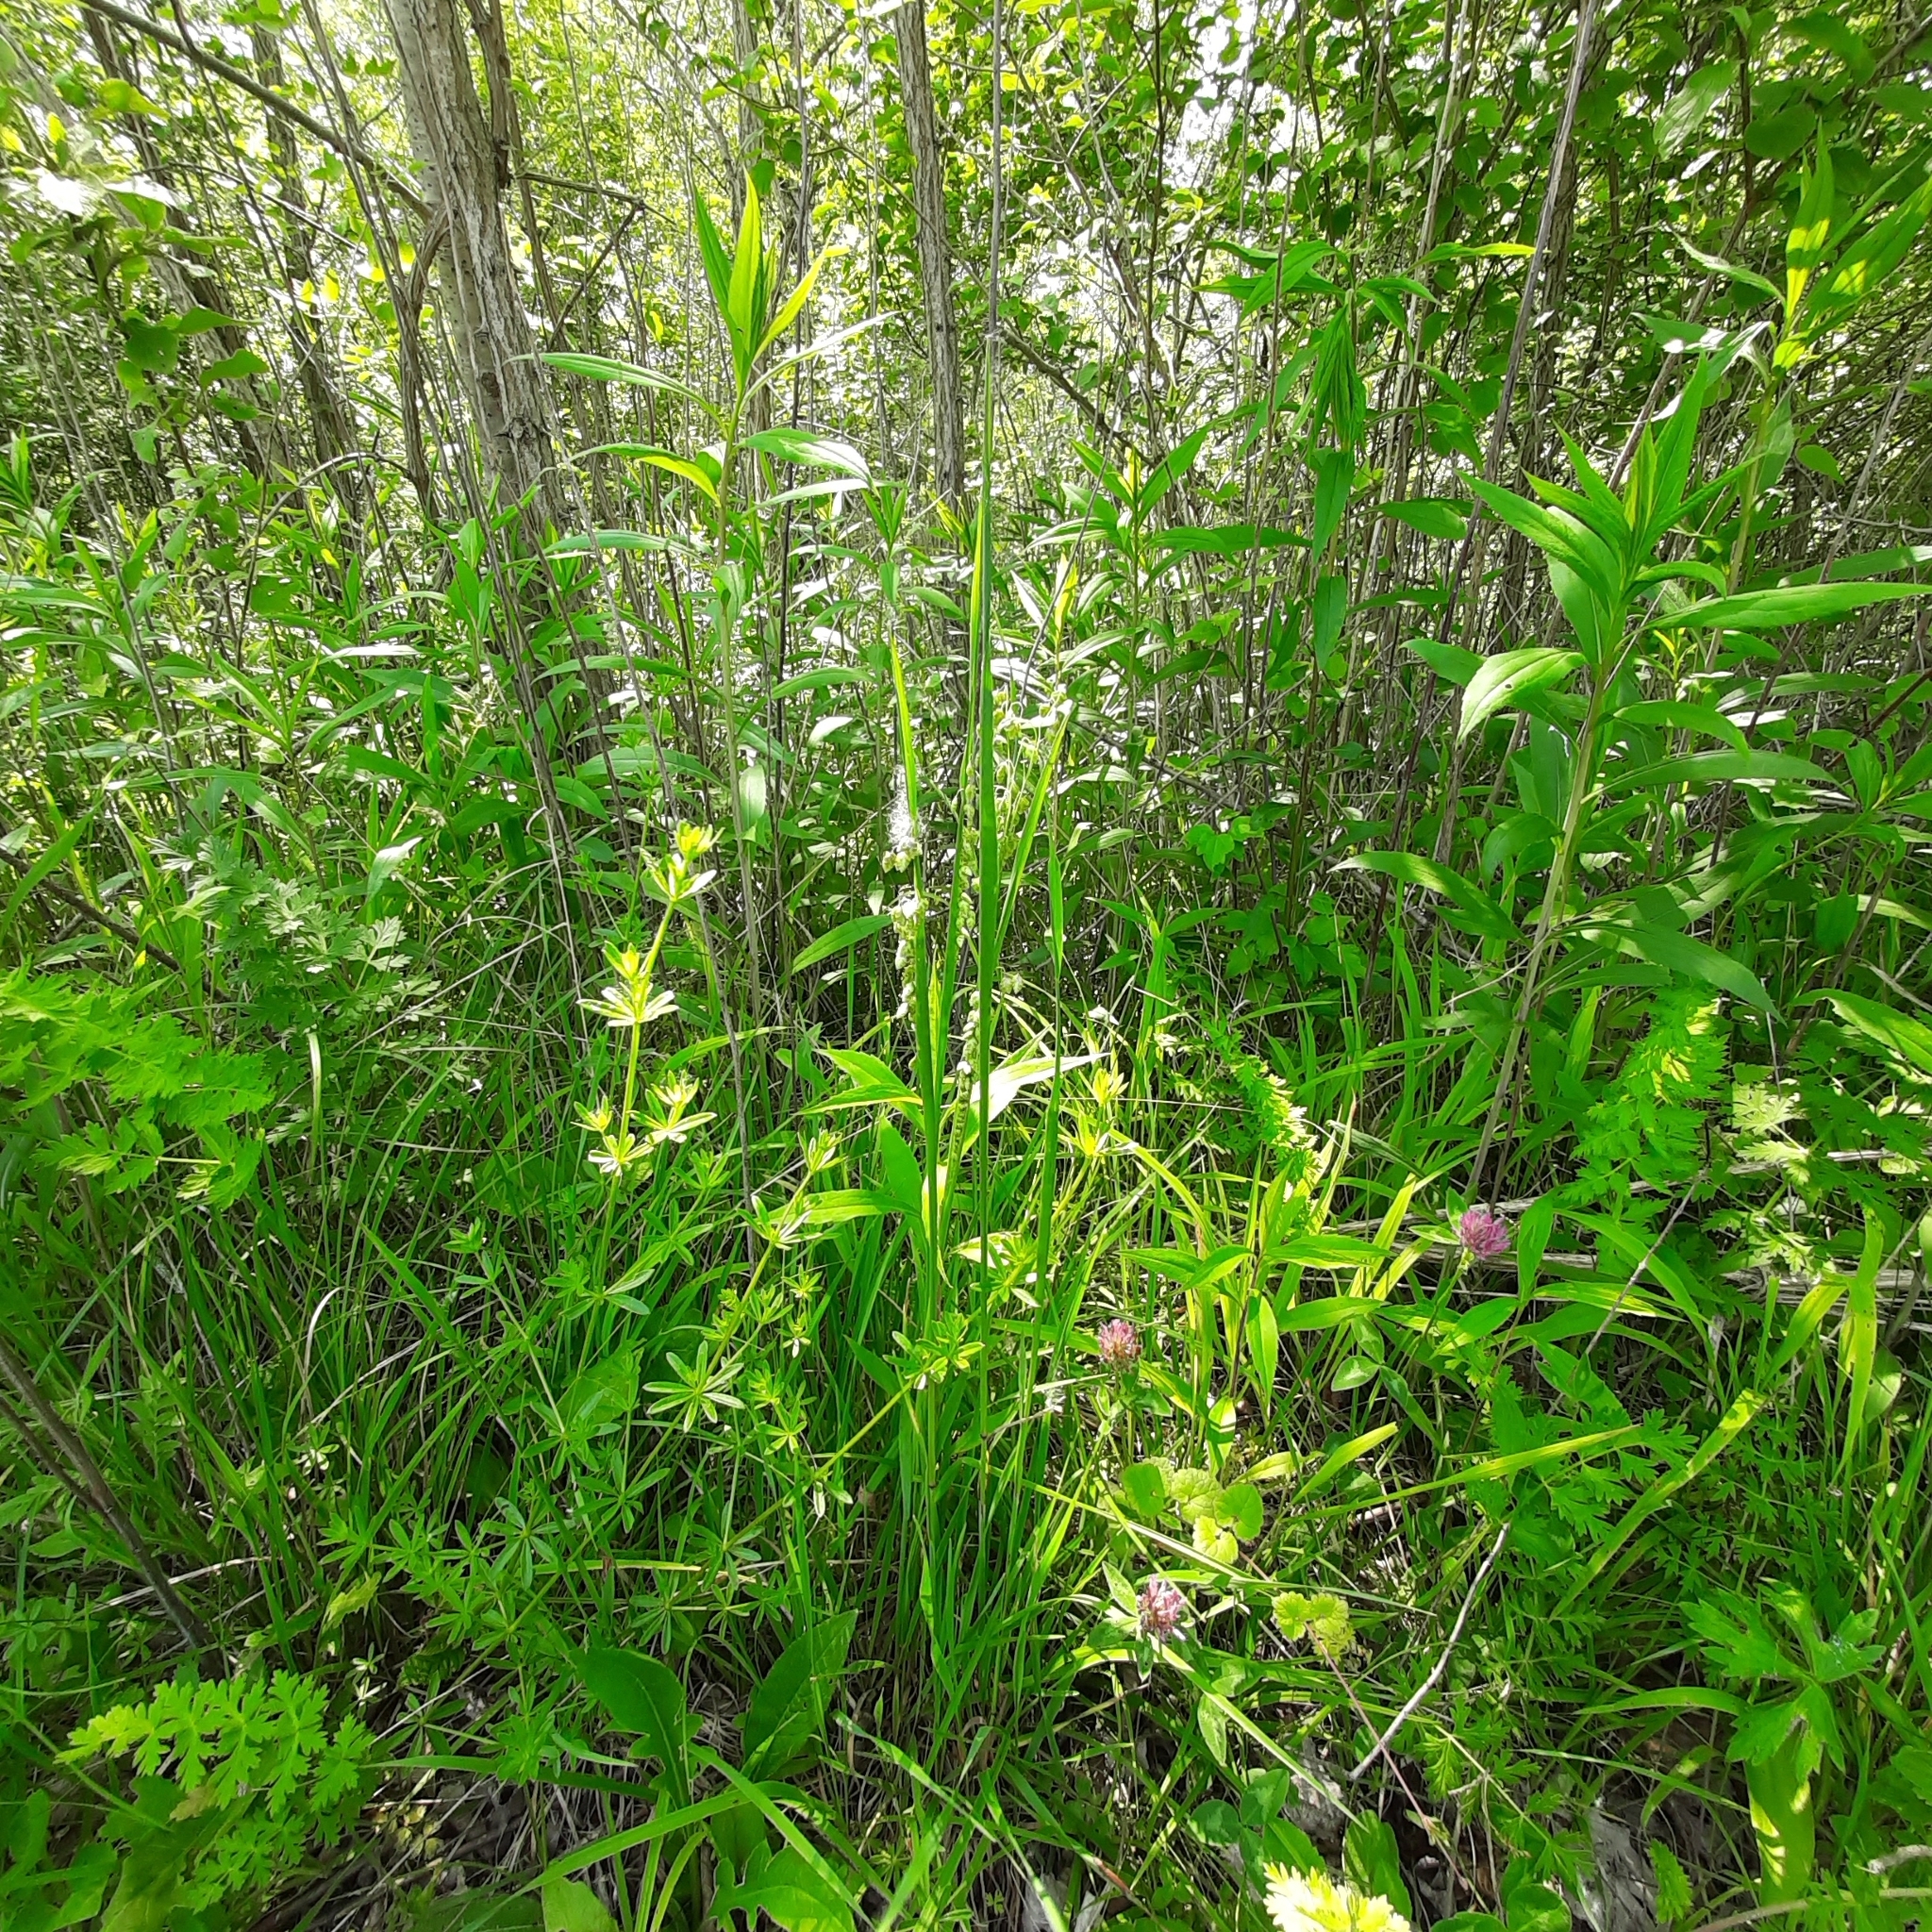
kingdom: Plantae
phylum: Tracheophyta
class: Liliopsida
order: Poales
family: Poaceae
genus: Briza
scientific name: Briza media
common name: Quaking grass
